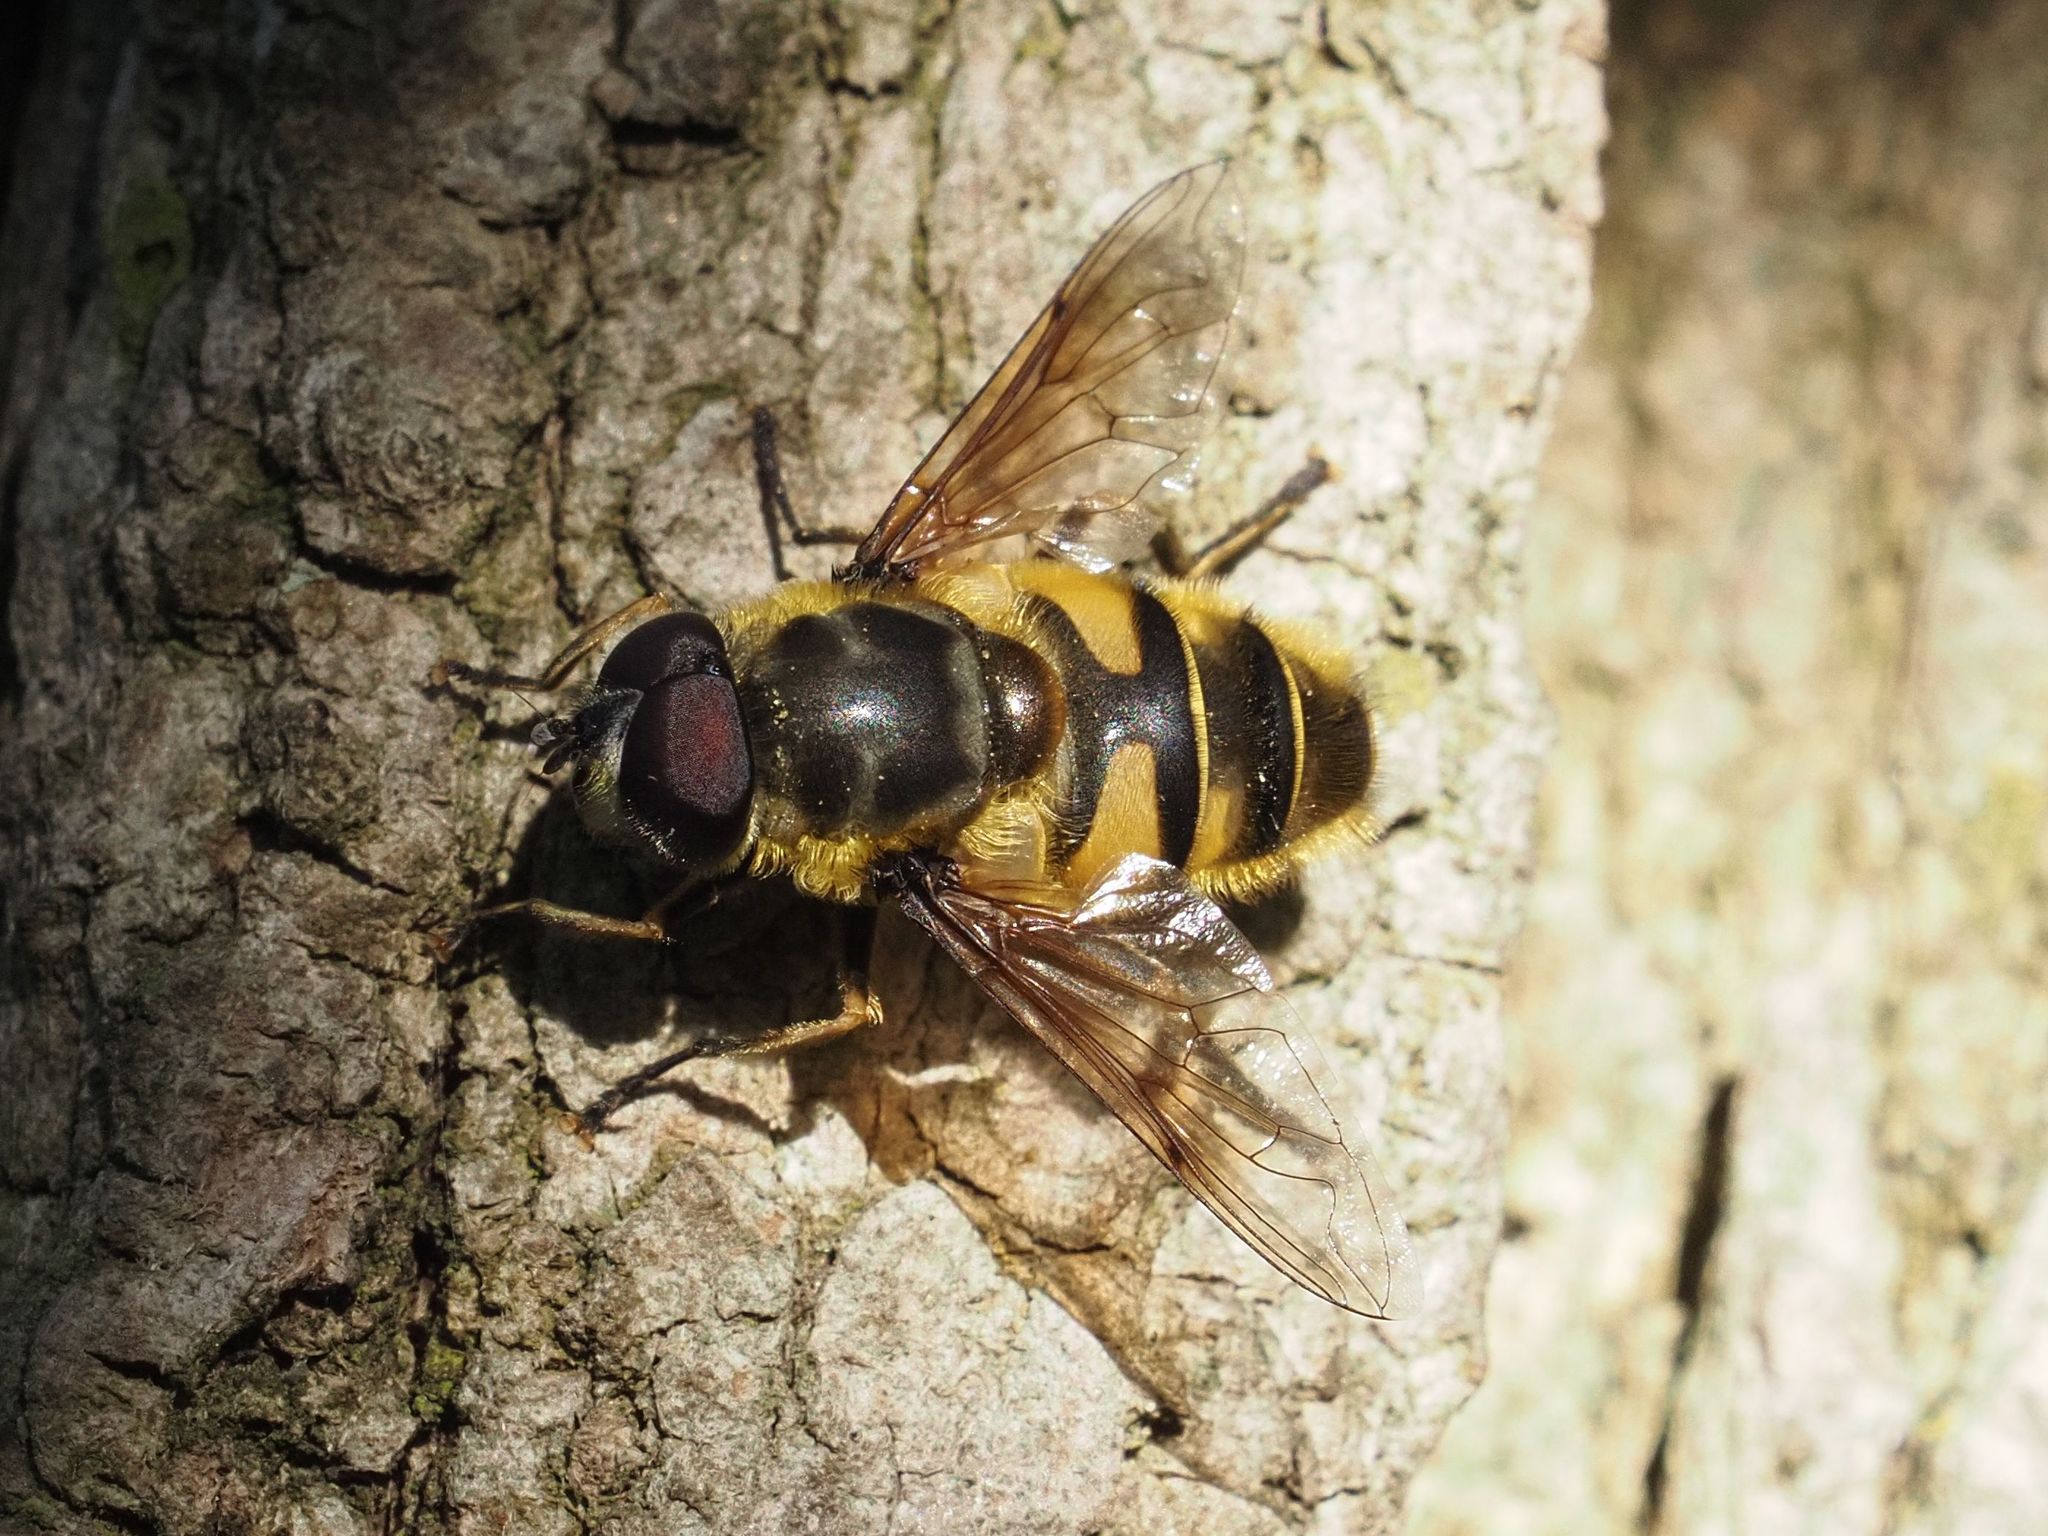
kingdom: Animalia
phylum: Arthropoda
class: Insecta
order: Diptera
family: Syrphidae
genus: Myathropa
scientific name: Myathropa florea
